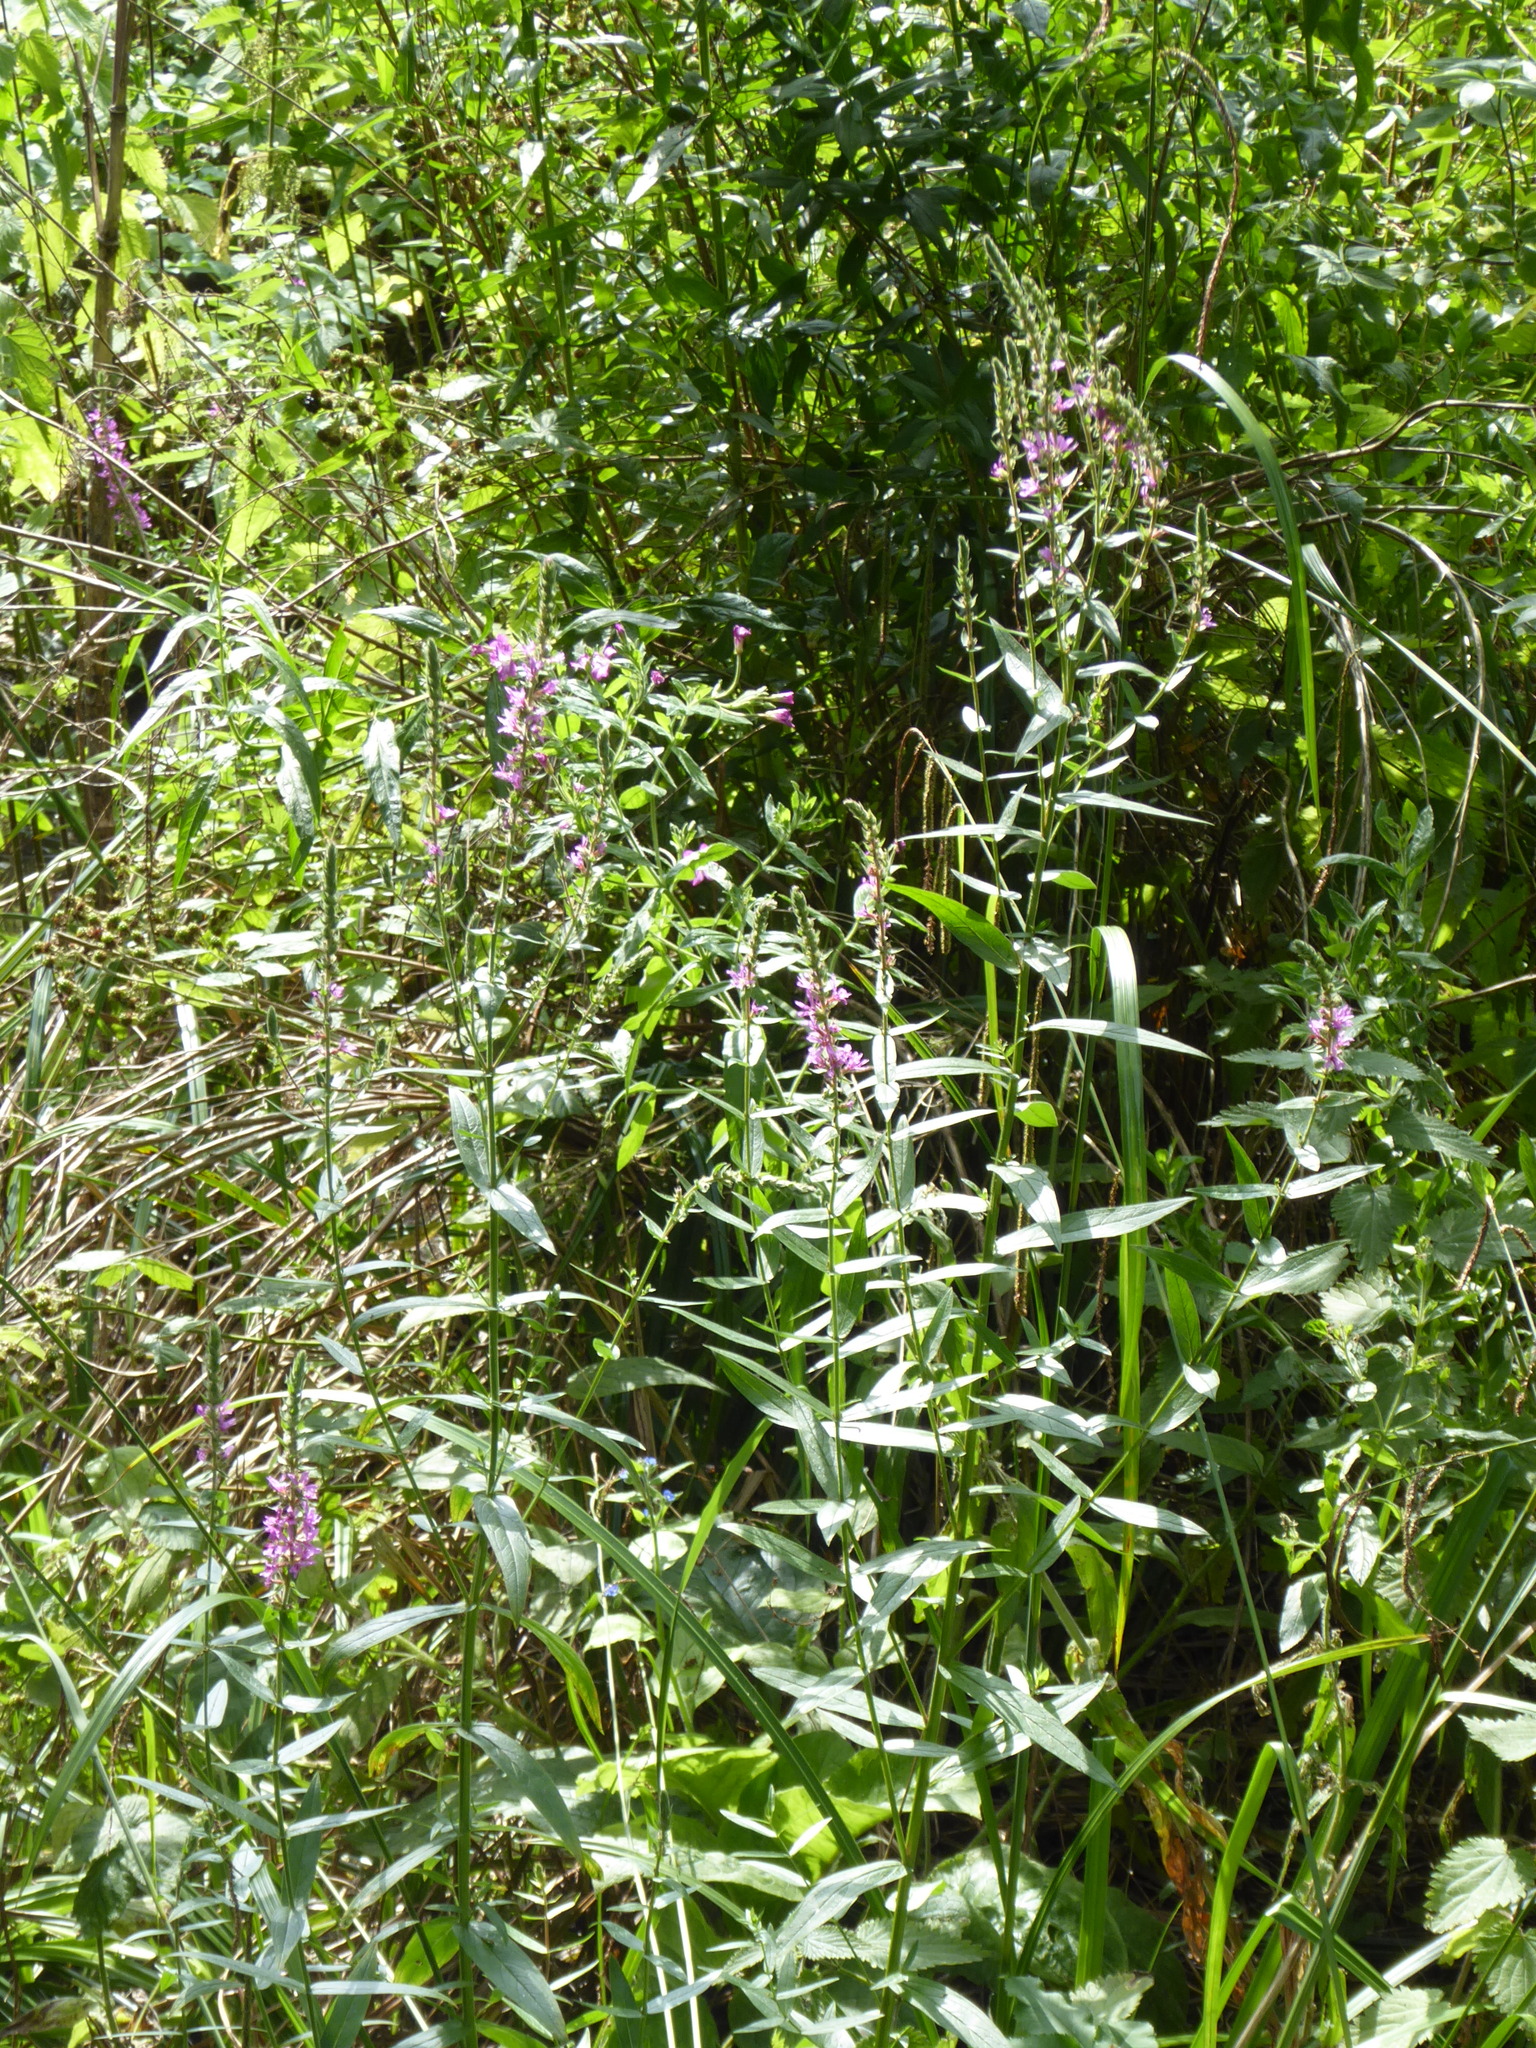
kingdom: Plantae
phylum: Tracheophyta
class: Magnoliopsida
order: Myrtales
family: Lythraceae
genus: Lythrum
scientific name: Lythrum salicaria
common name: Purple loosestrife
